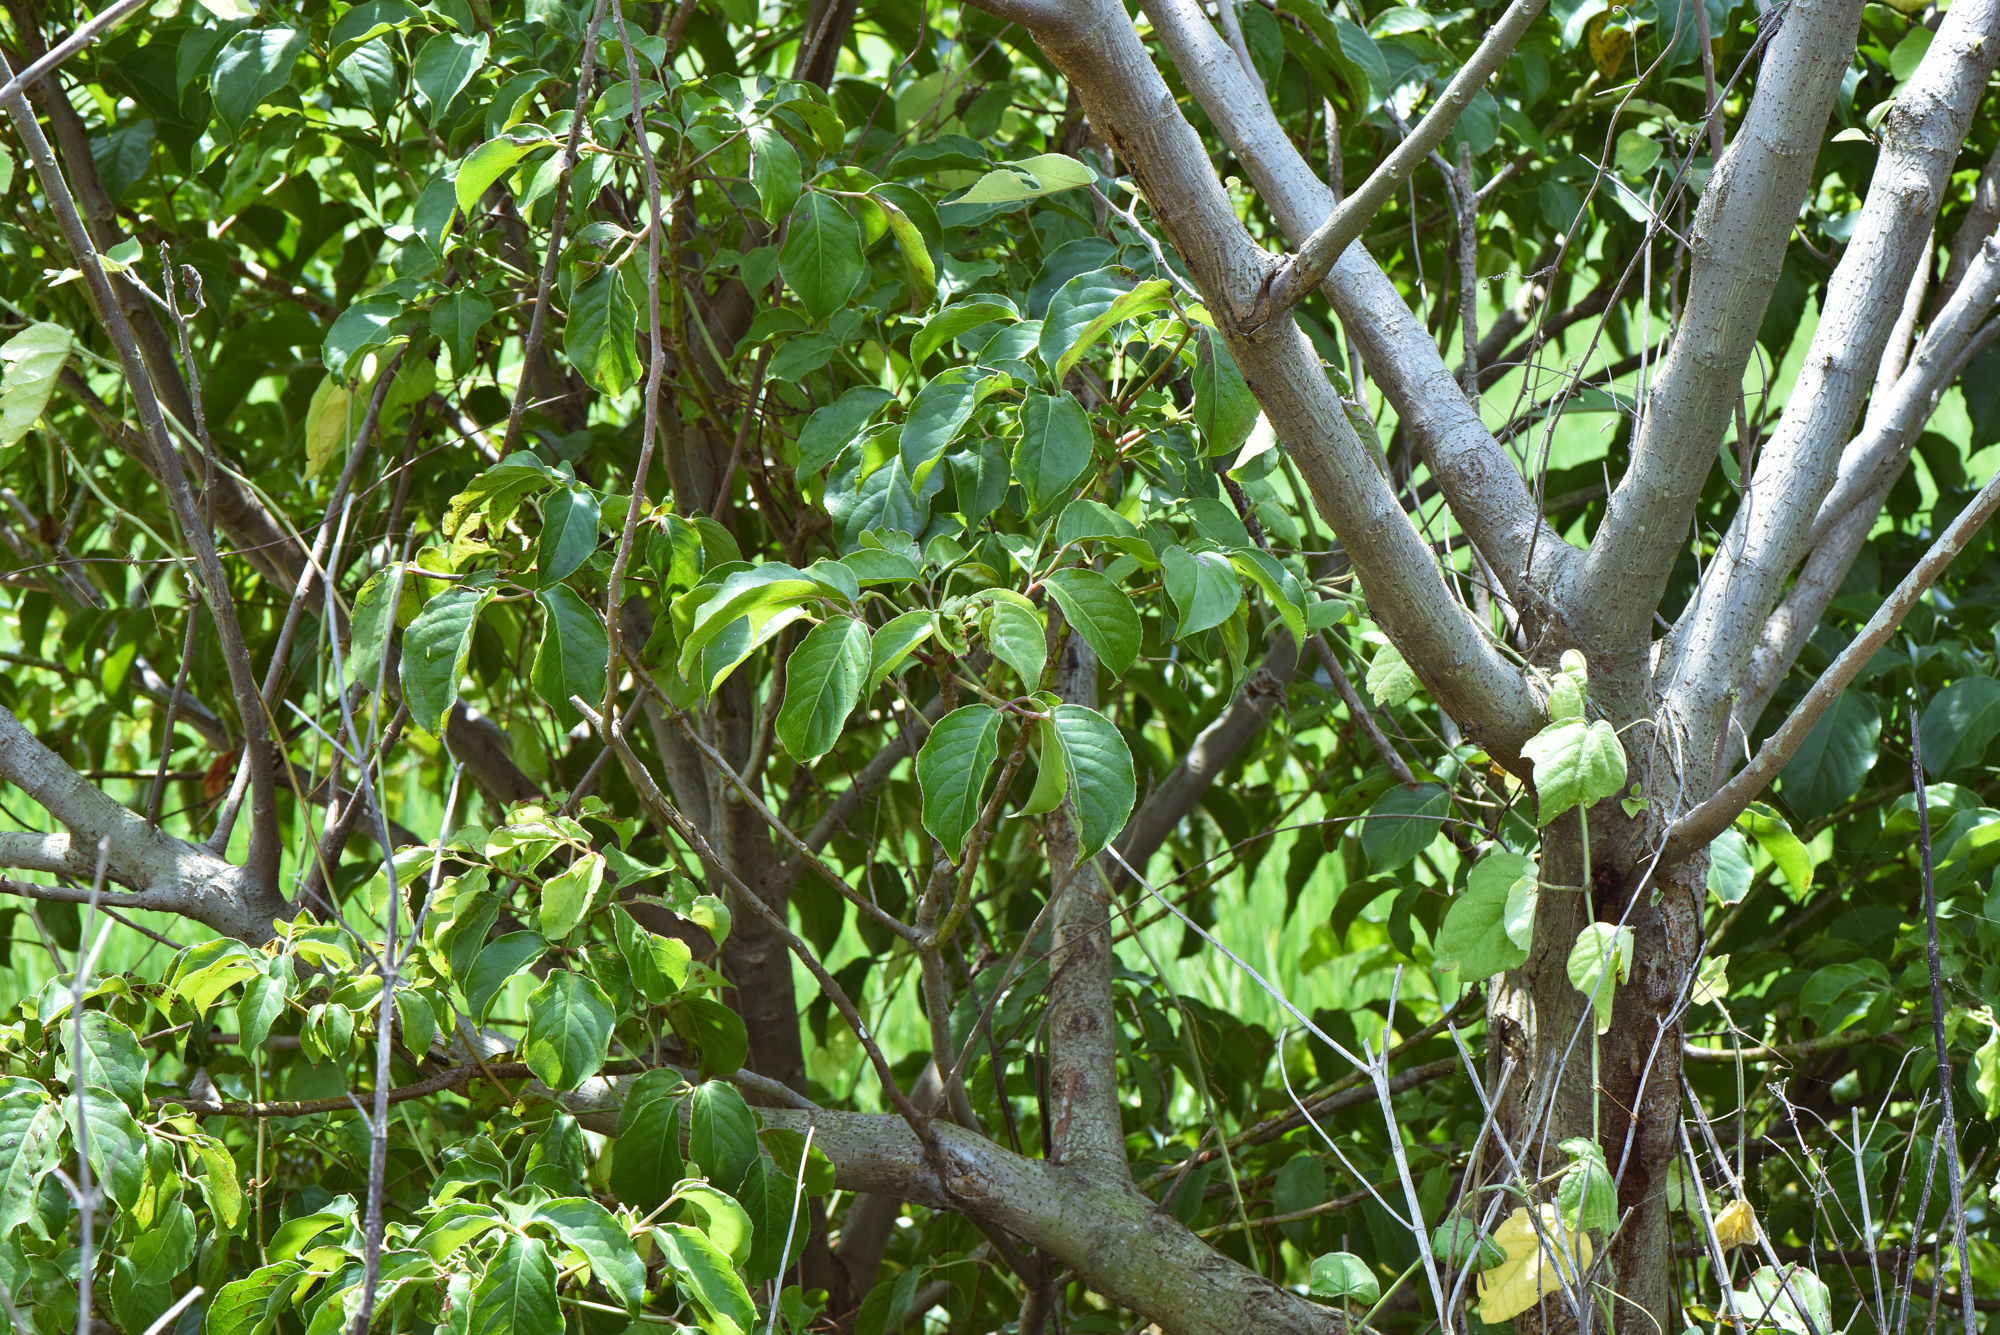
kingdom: Plantae
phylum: Tracheophyta
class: Magnoliopsida
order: Malpighiales
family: Phyllanthaceae
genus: Bischofia
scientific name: Bischofia javanica
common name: Javanese bishopwood
